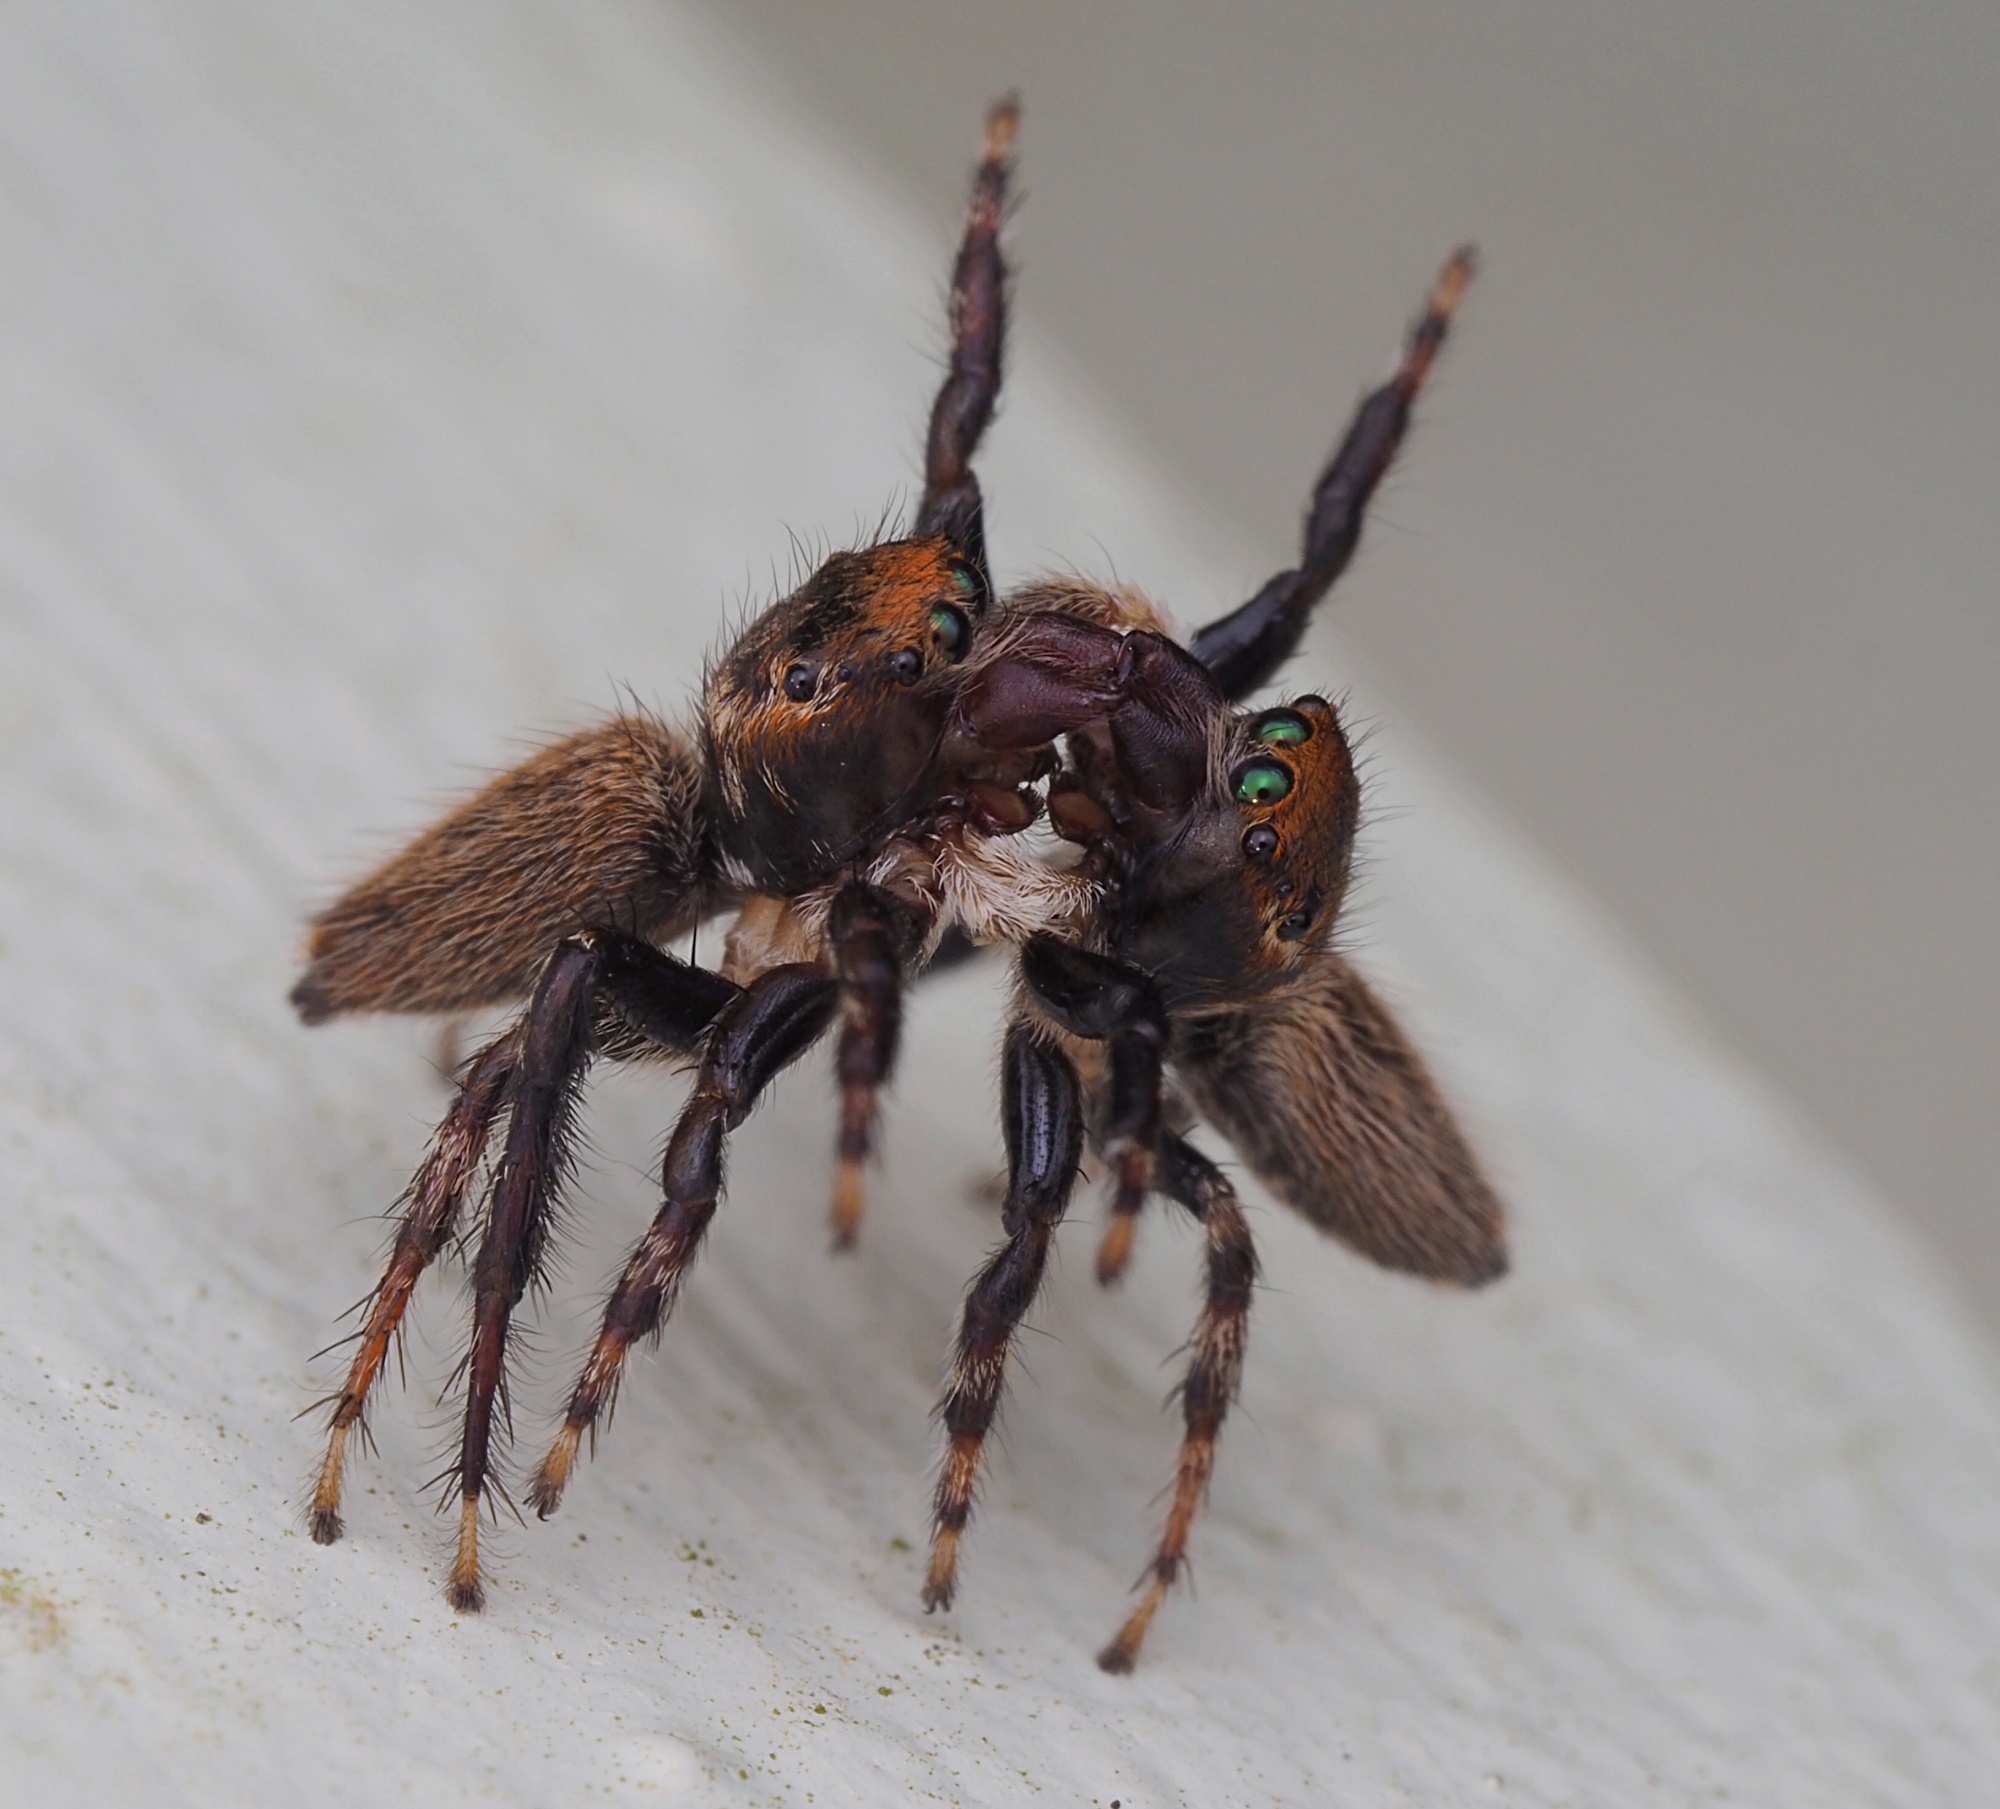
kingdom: Animalia
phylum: Arthropoda
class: Arachnida
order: Araneae
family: Salticidae
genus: Maratus
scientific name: Maratus griseus
